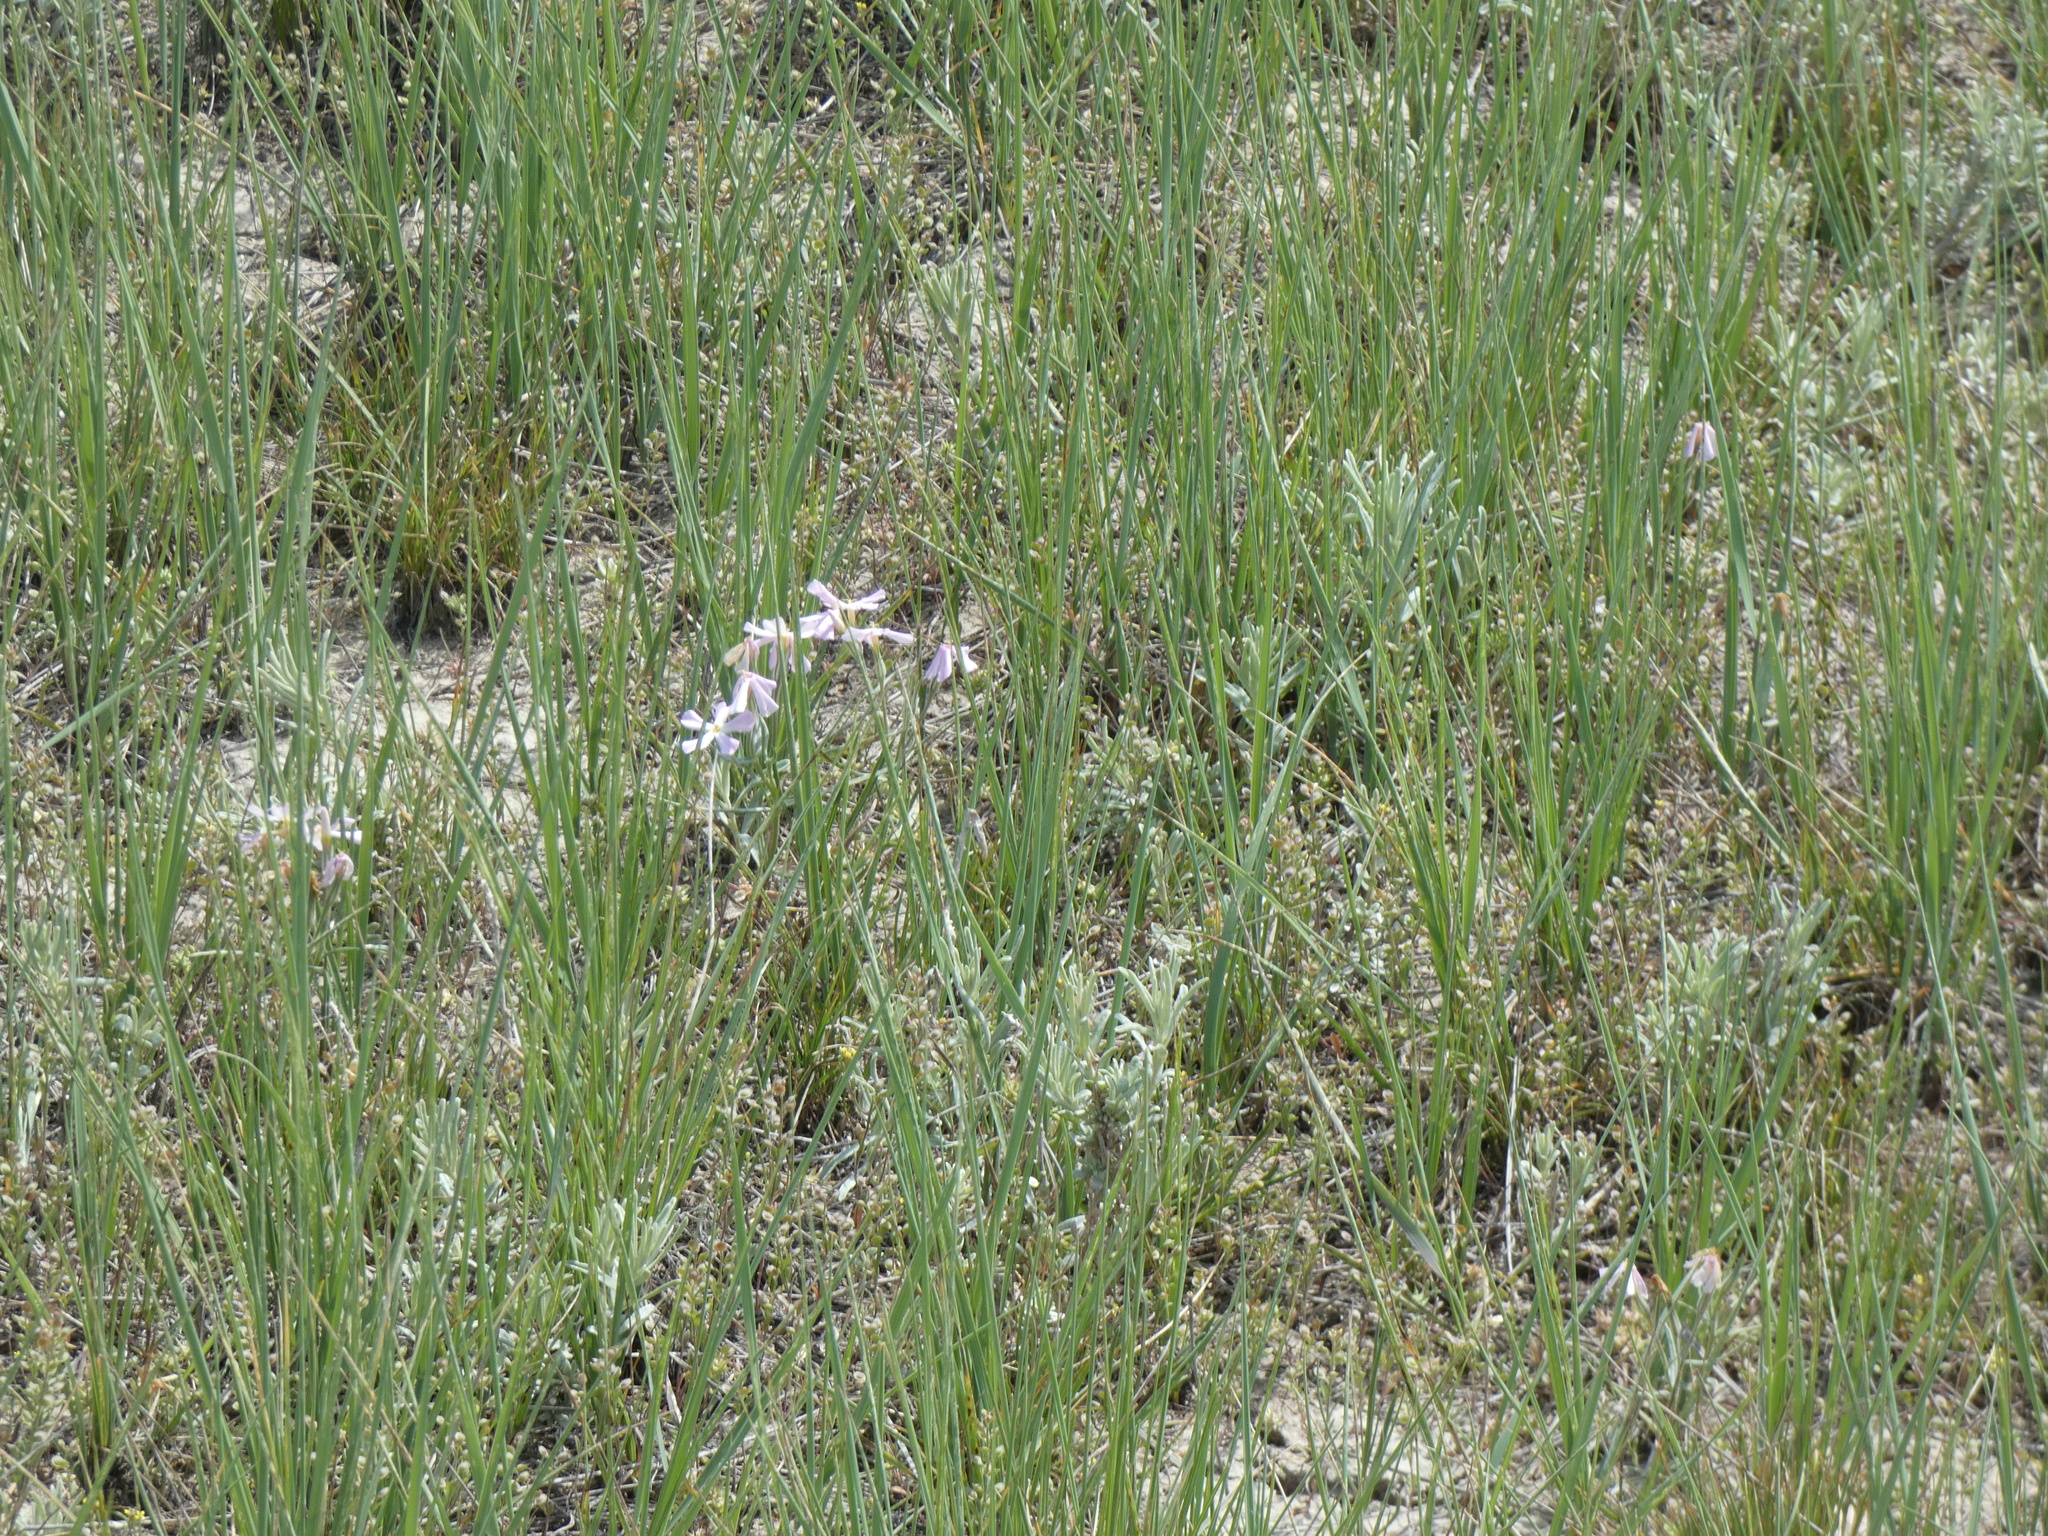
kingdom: Plantae
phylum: Tracheophyta
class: Magnoliopsida
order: Ericales
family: Polemoniaceae
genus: Phlox
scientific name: Phlox longifolia
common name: Longleaf phlox
